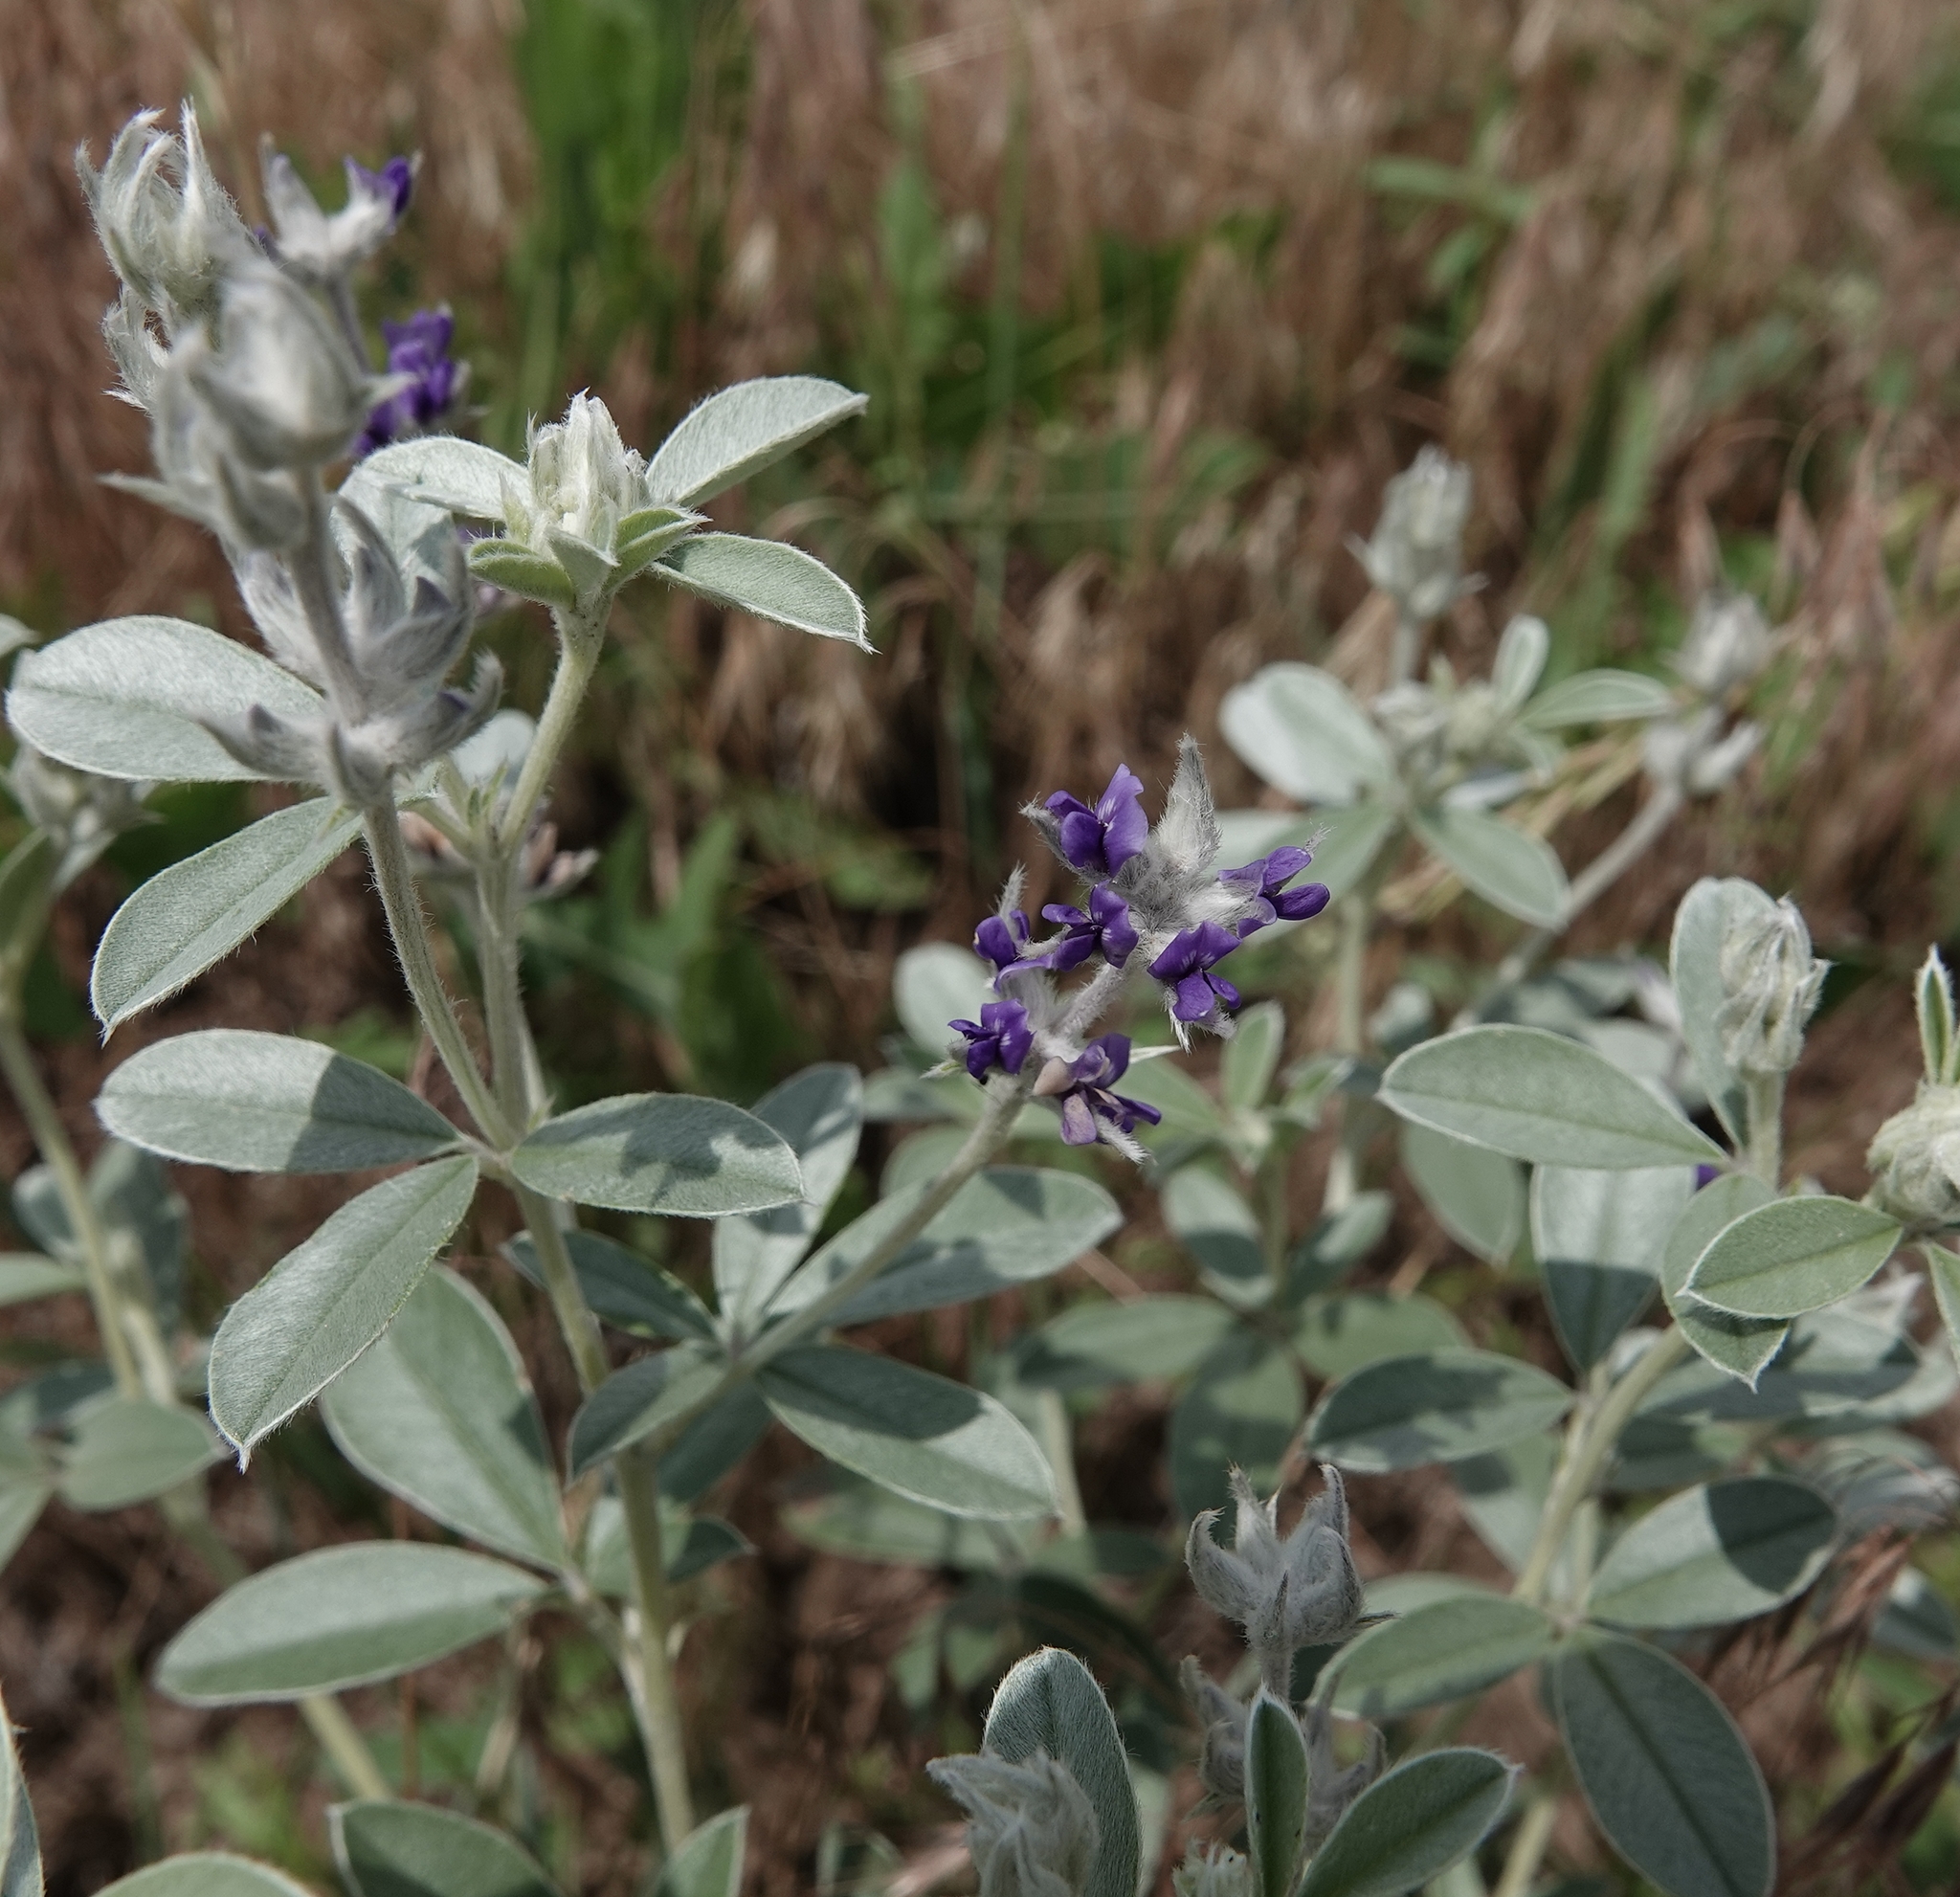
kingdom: Plantae
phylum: Tracheophyta
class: Magnoliopsida
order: Fabales
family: Fabaceae
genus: Pediomelum
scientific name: Pediomelum argophyllum
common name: Silver-leaved indian breadroot
